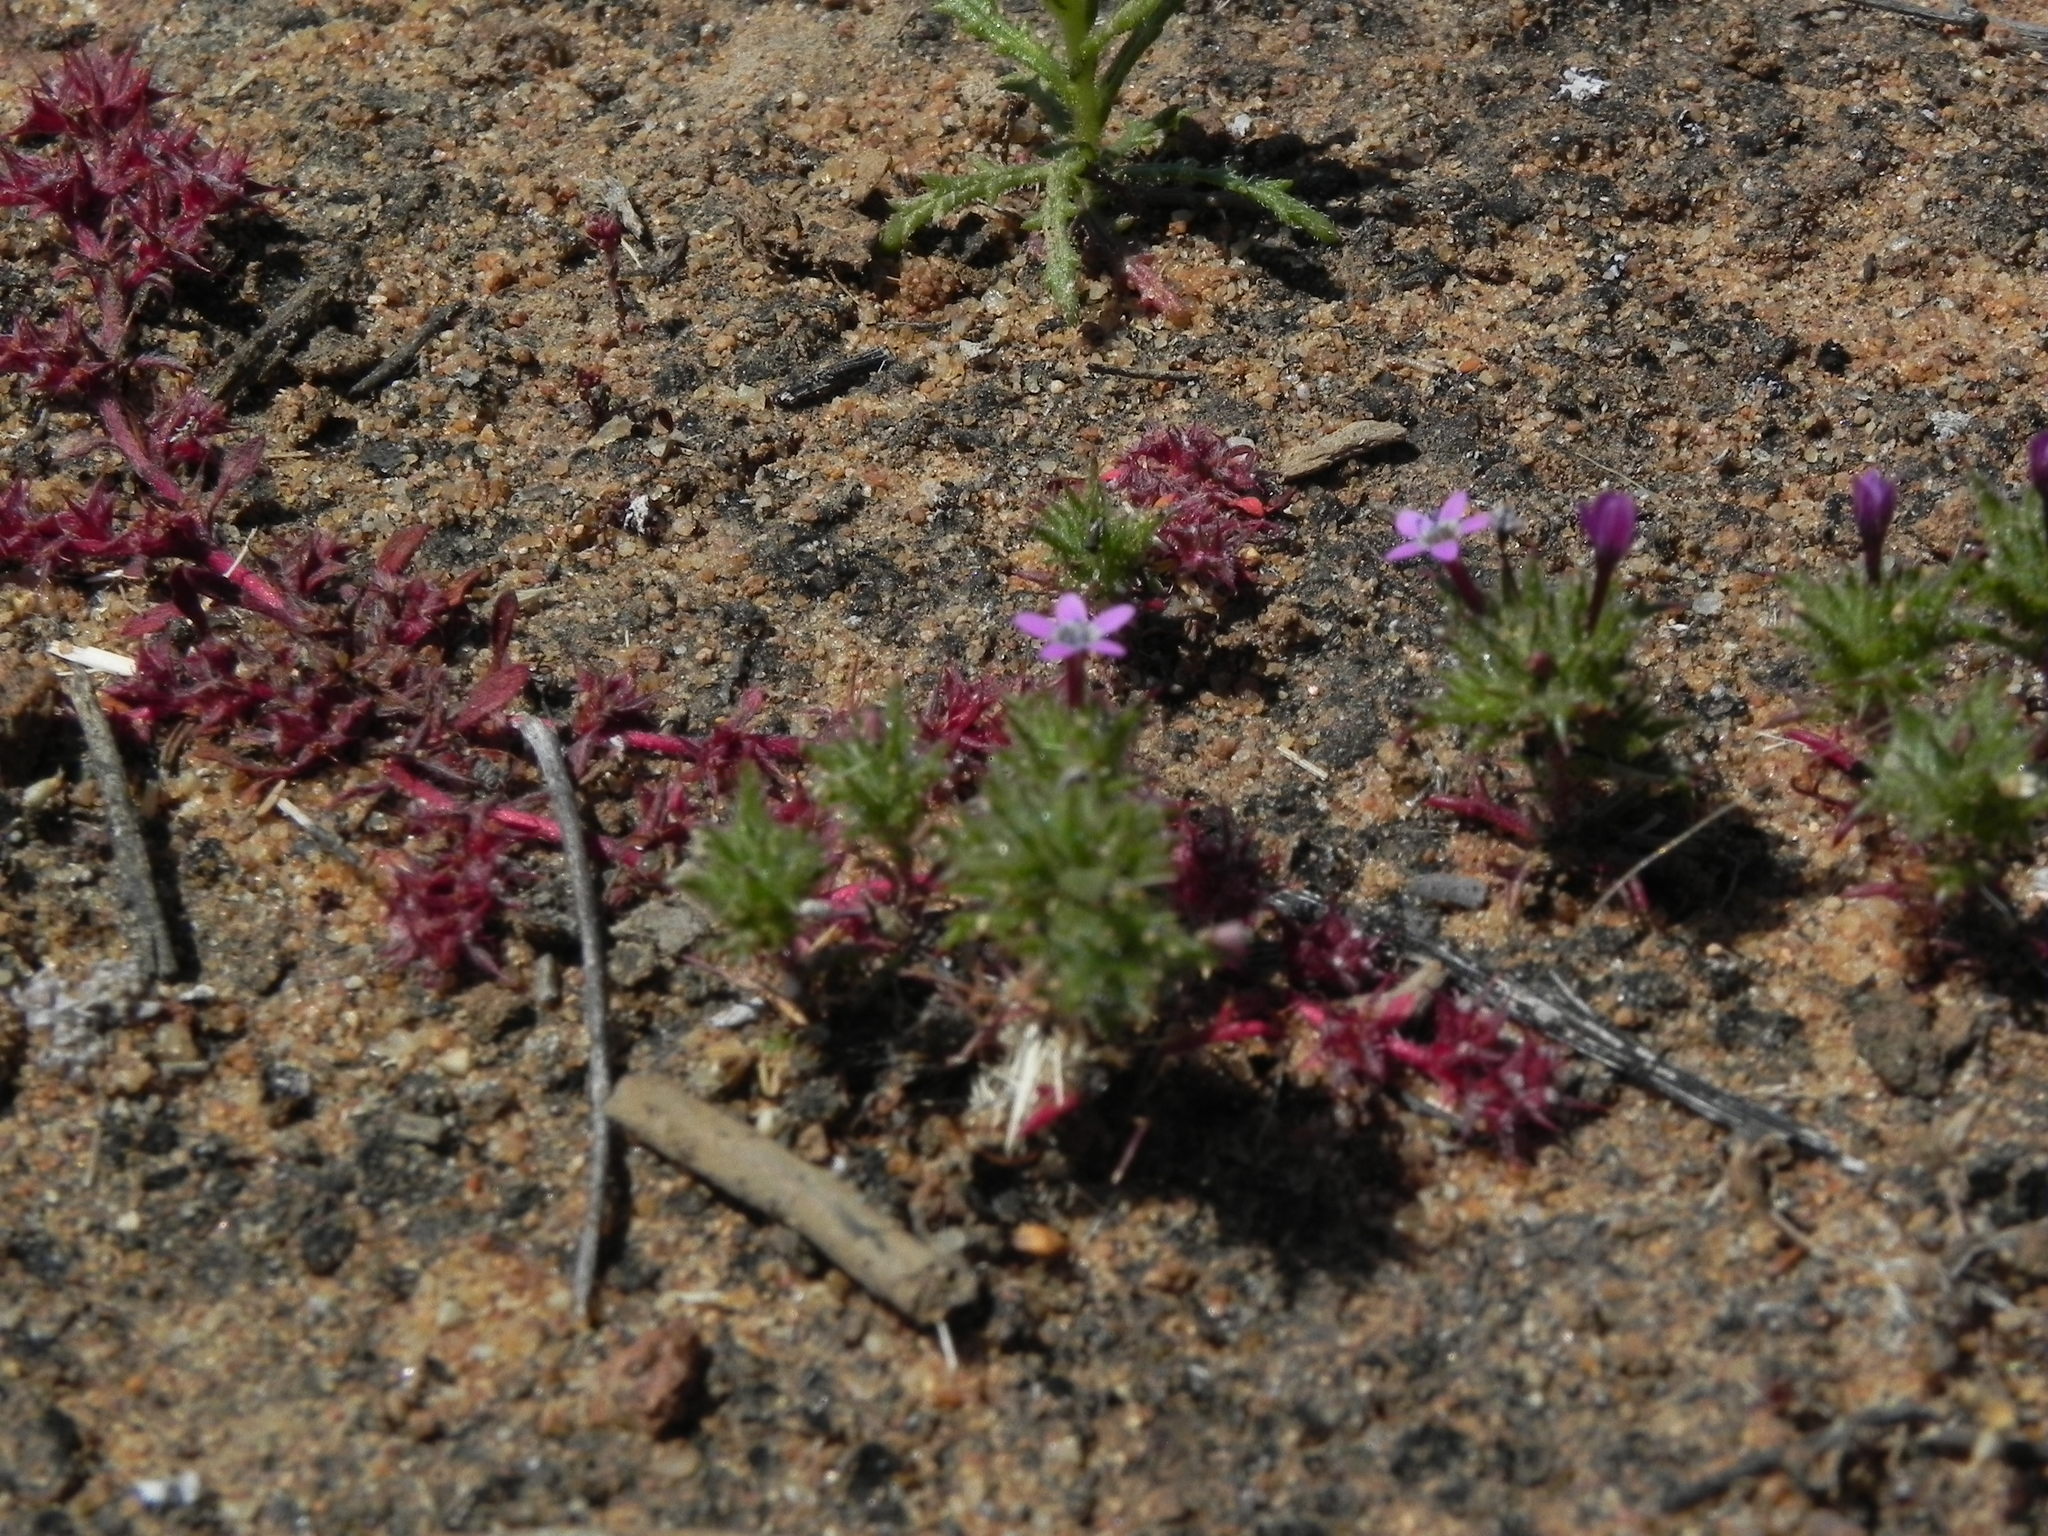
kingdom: Plantae
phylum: Tracheophyta
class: Magnoliopsida
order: Caryophyllales
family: Polygonaceae
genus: Chorizanthe
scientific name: Chorizanthe polygonoides
